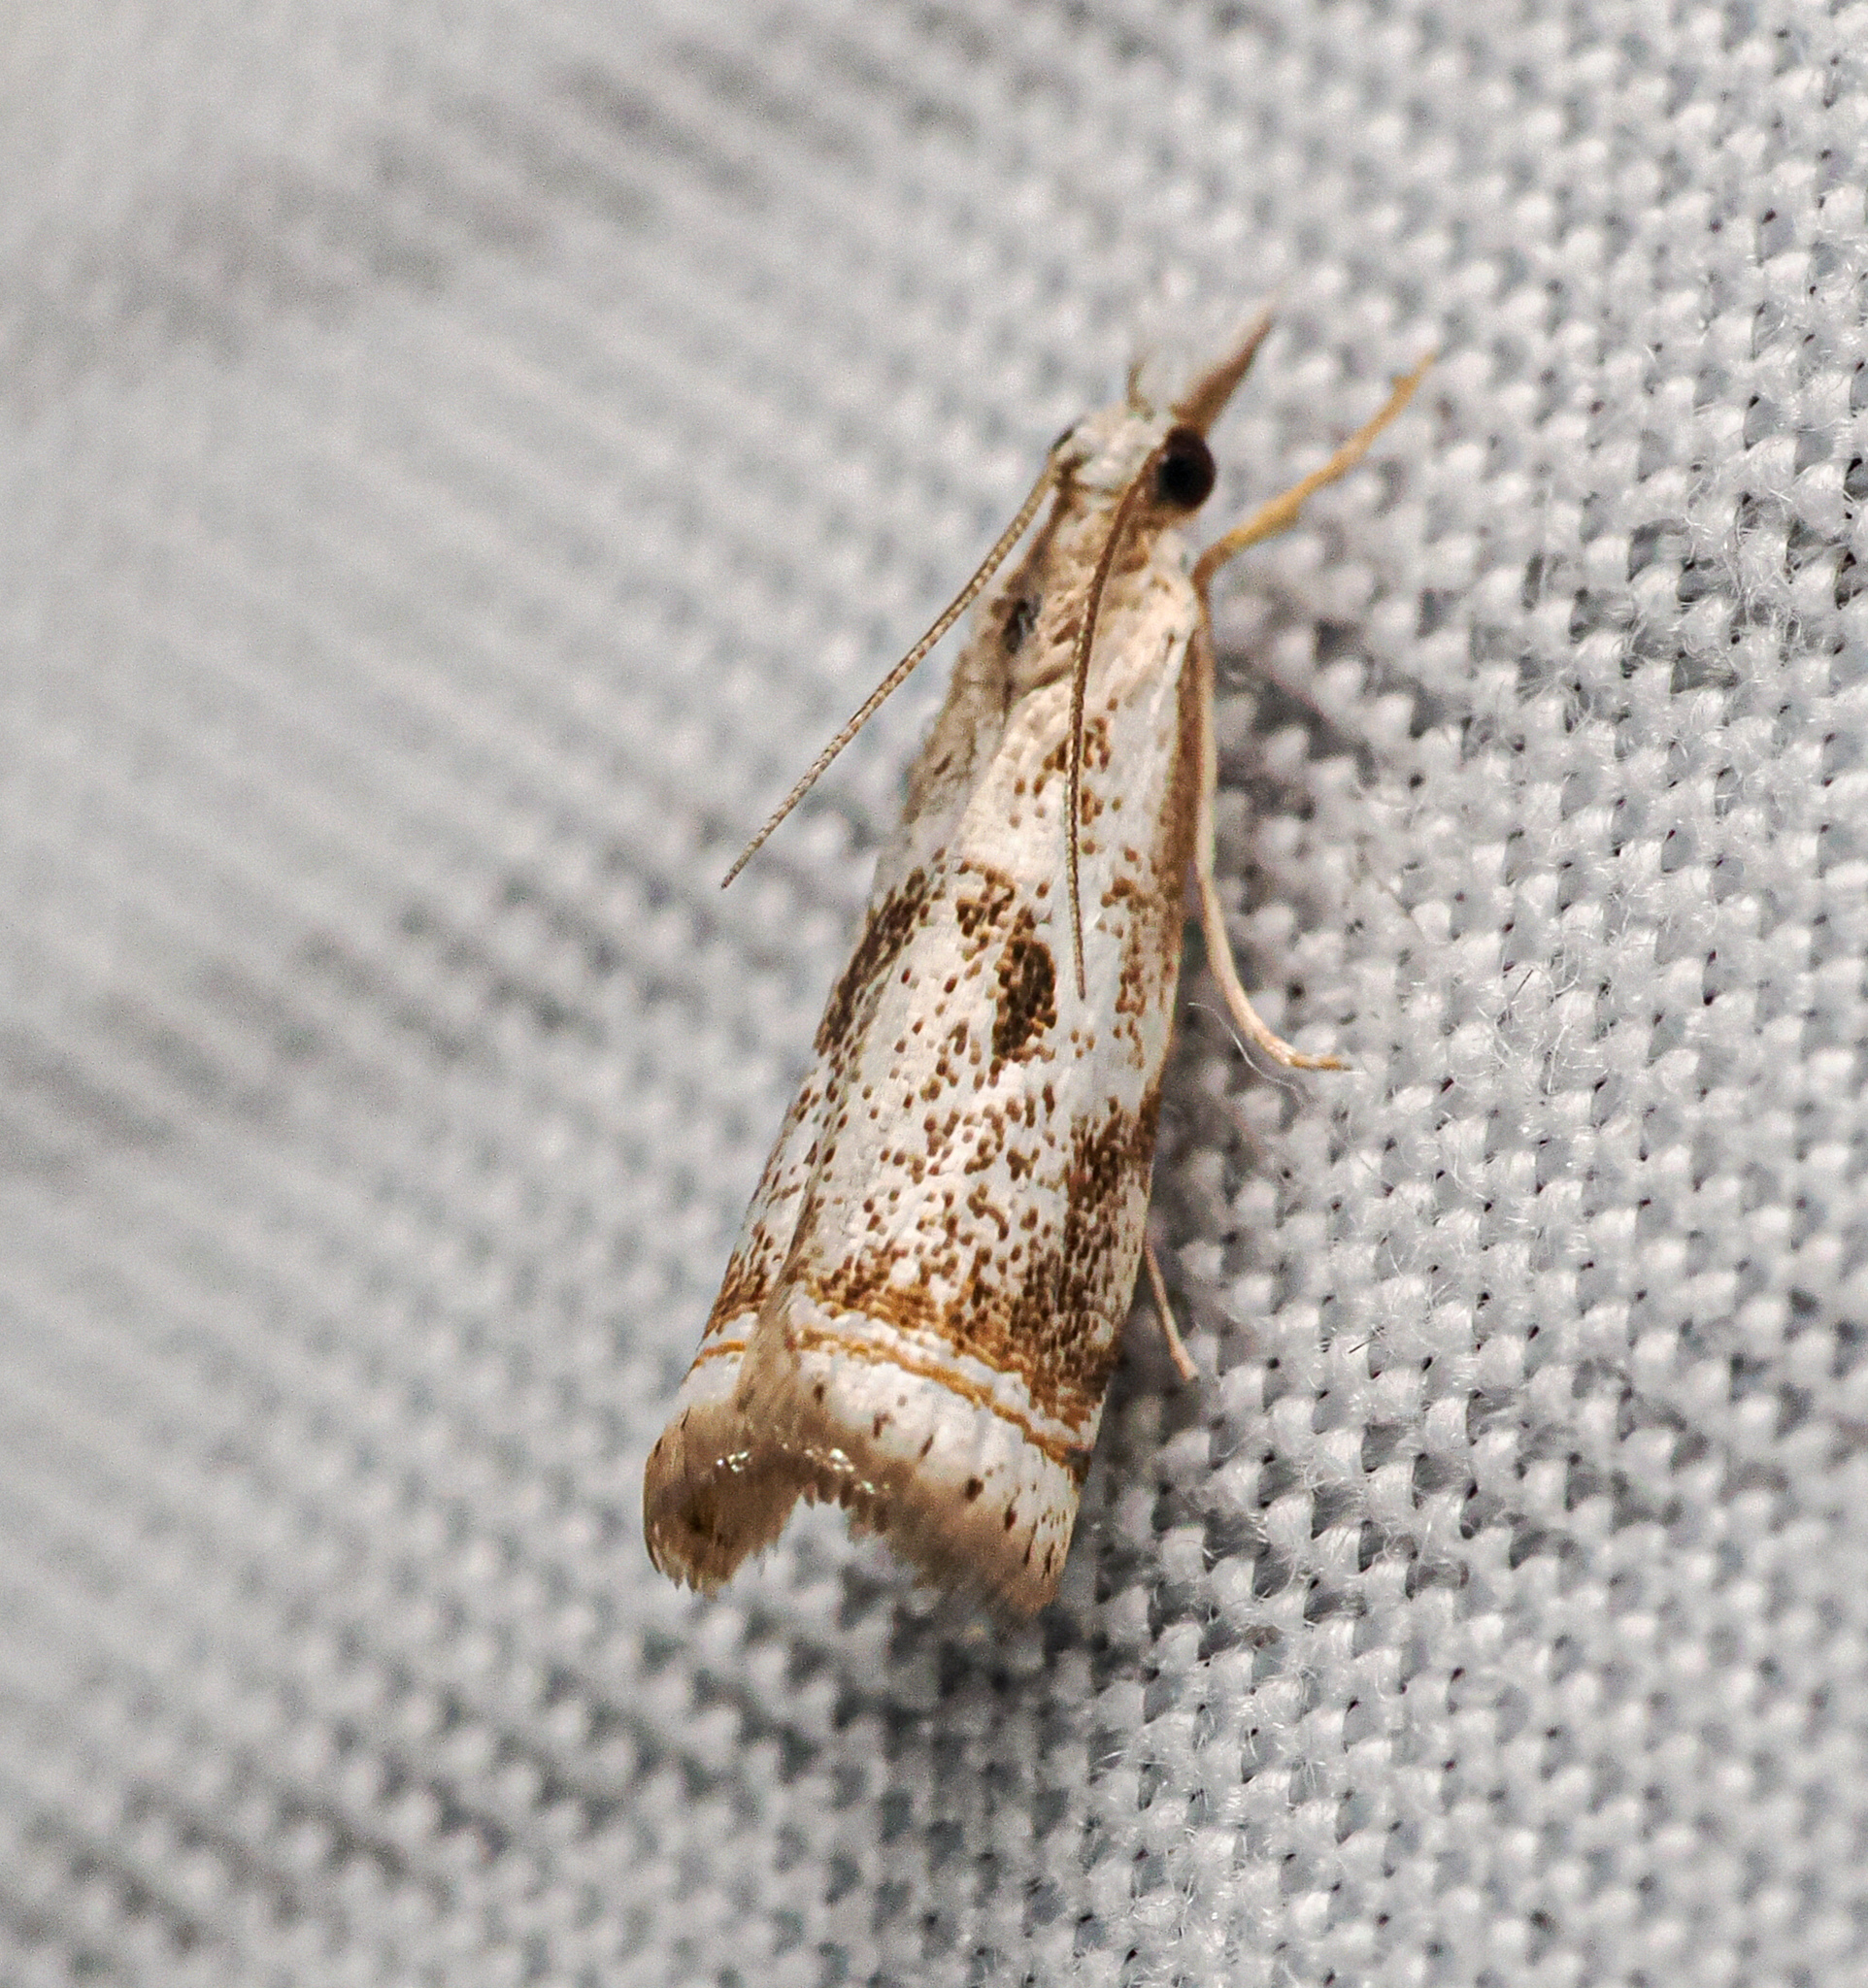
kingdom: Animalia
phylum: Arthropoda
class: Insecta
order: Lepidoptera
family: Crambidae
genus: Microcrambus
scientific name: Microcrambus elegans
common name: Elegant grass-veneer
